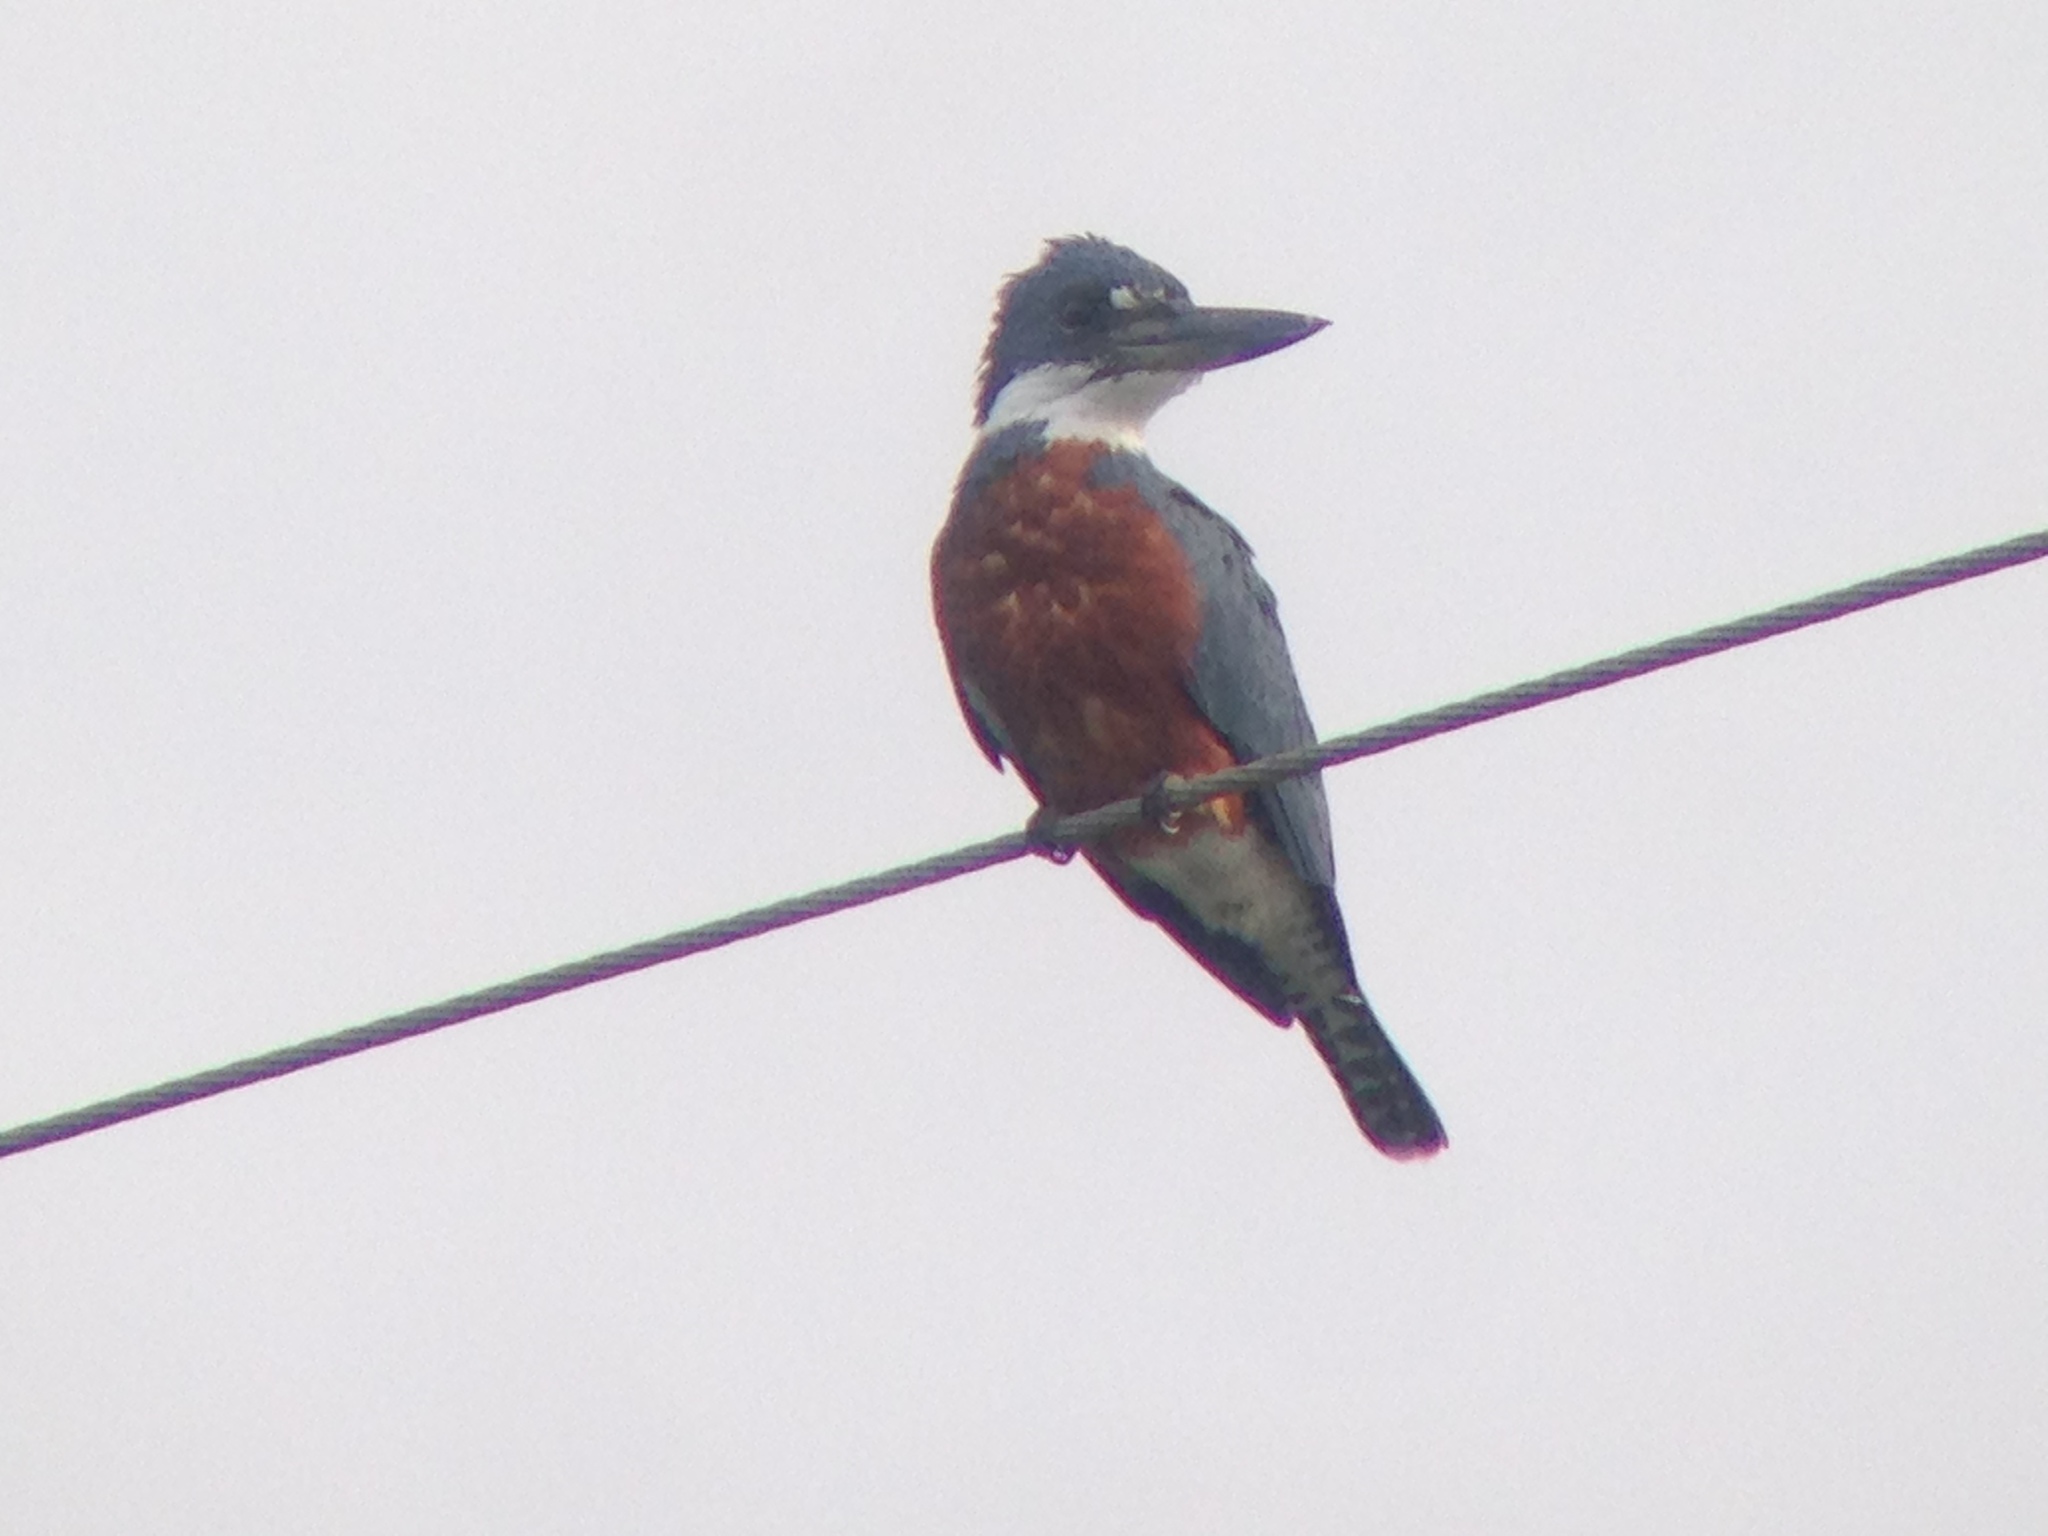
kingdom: Animalia
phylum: Chordata
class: Aves
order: Coraciiformes
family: Alcedinidae
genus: Megaceryle
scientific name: Megaceryle torquata
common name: Ringed kingfisher
